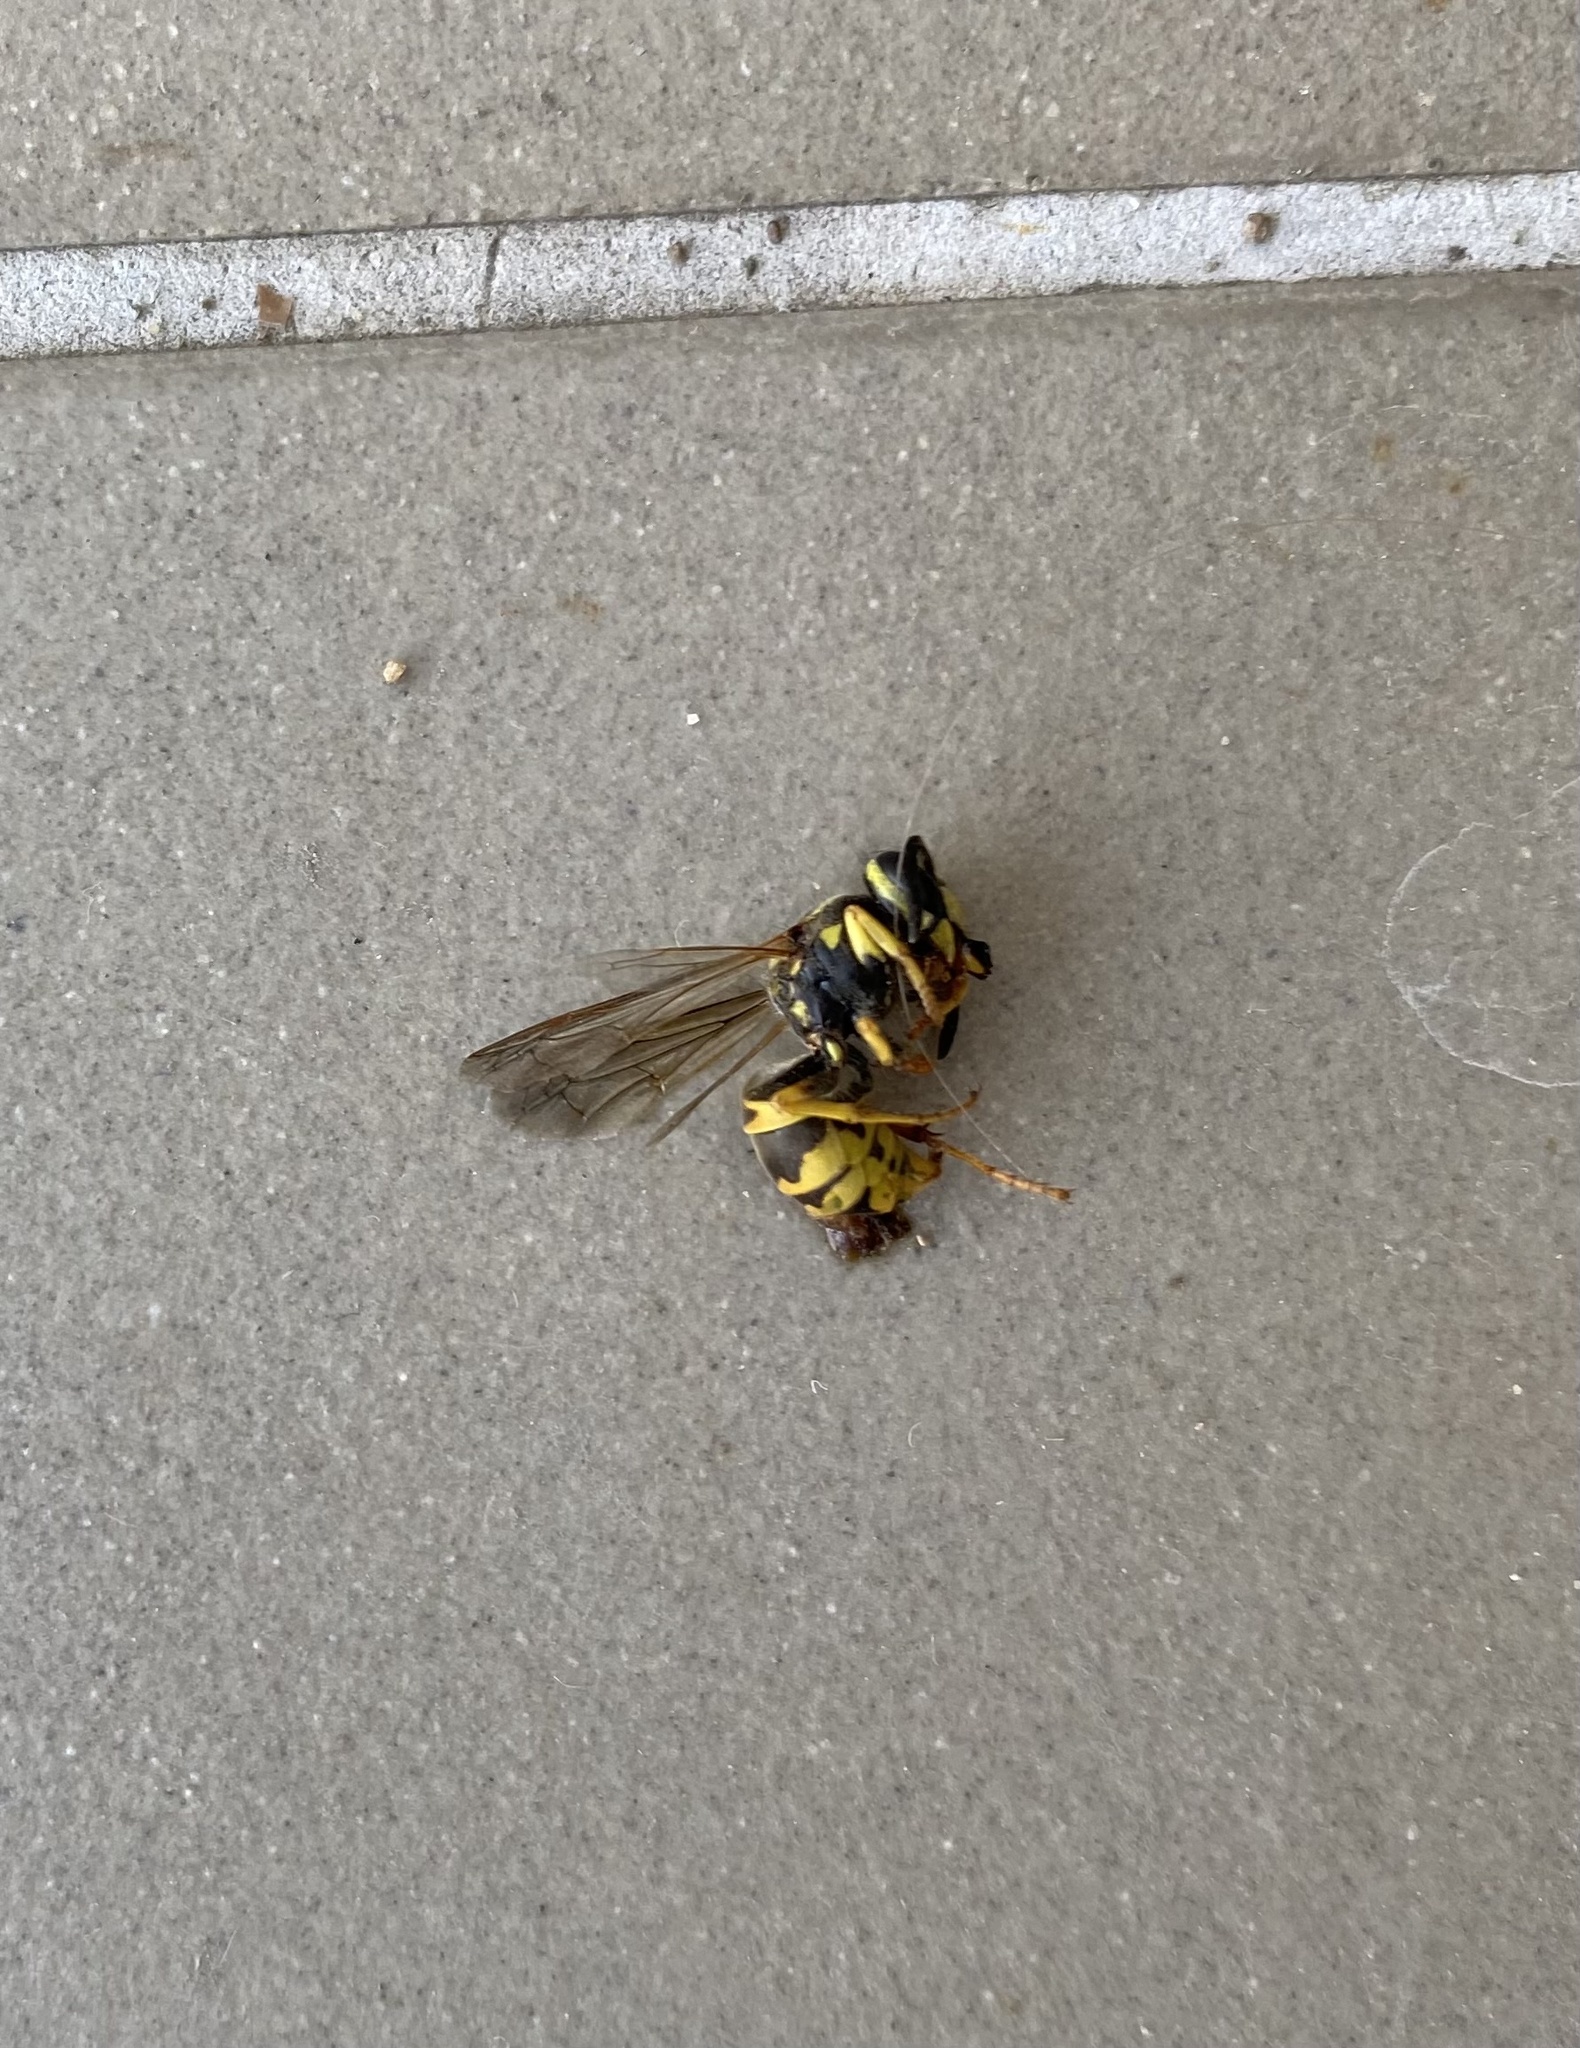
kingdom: Animalia
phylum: Arthropoda
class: Insecta
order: Hymenoptera
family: Vespidae
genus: Vespula
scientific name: Vespula germanica
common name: German wasp
